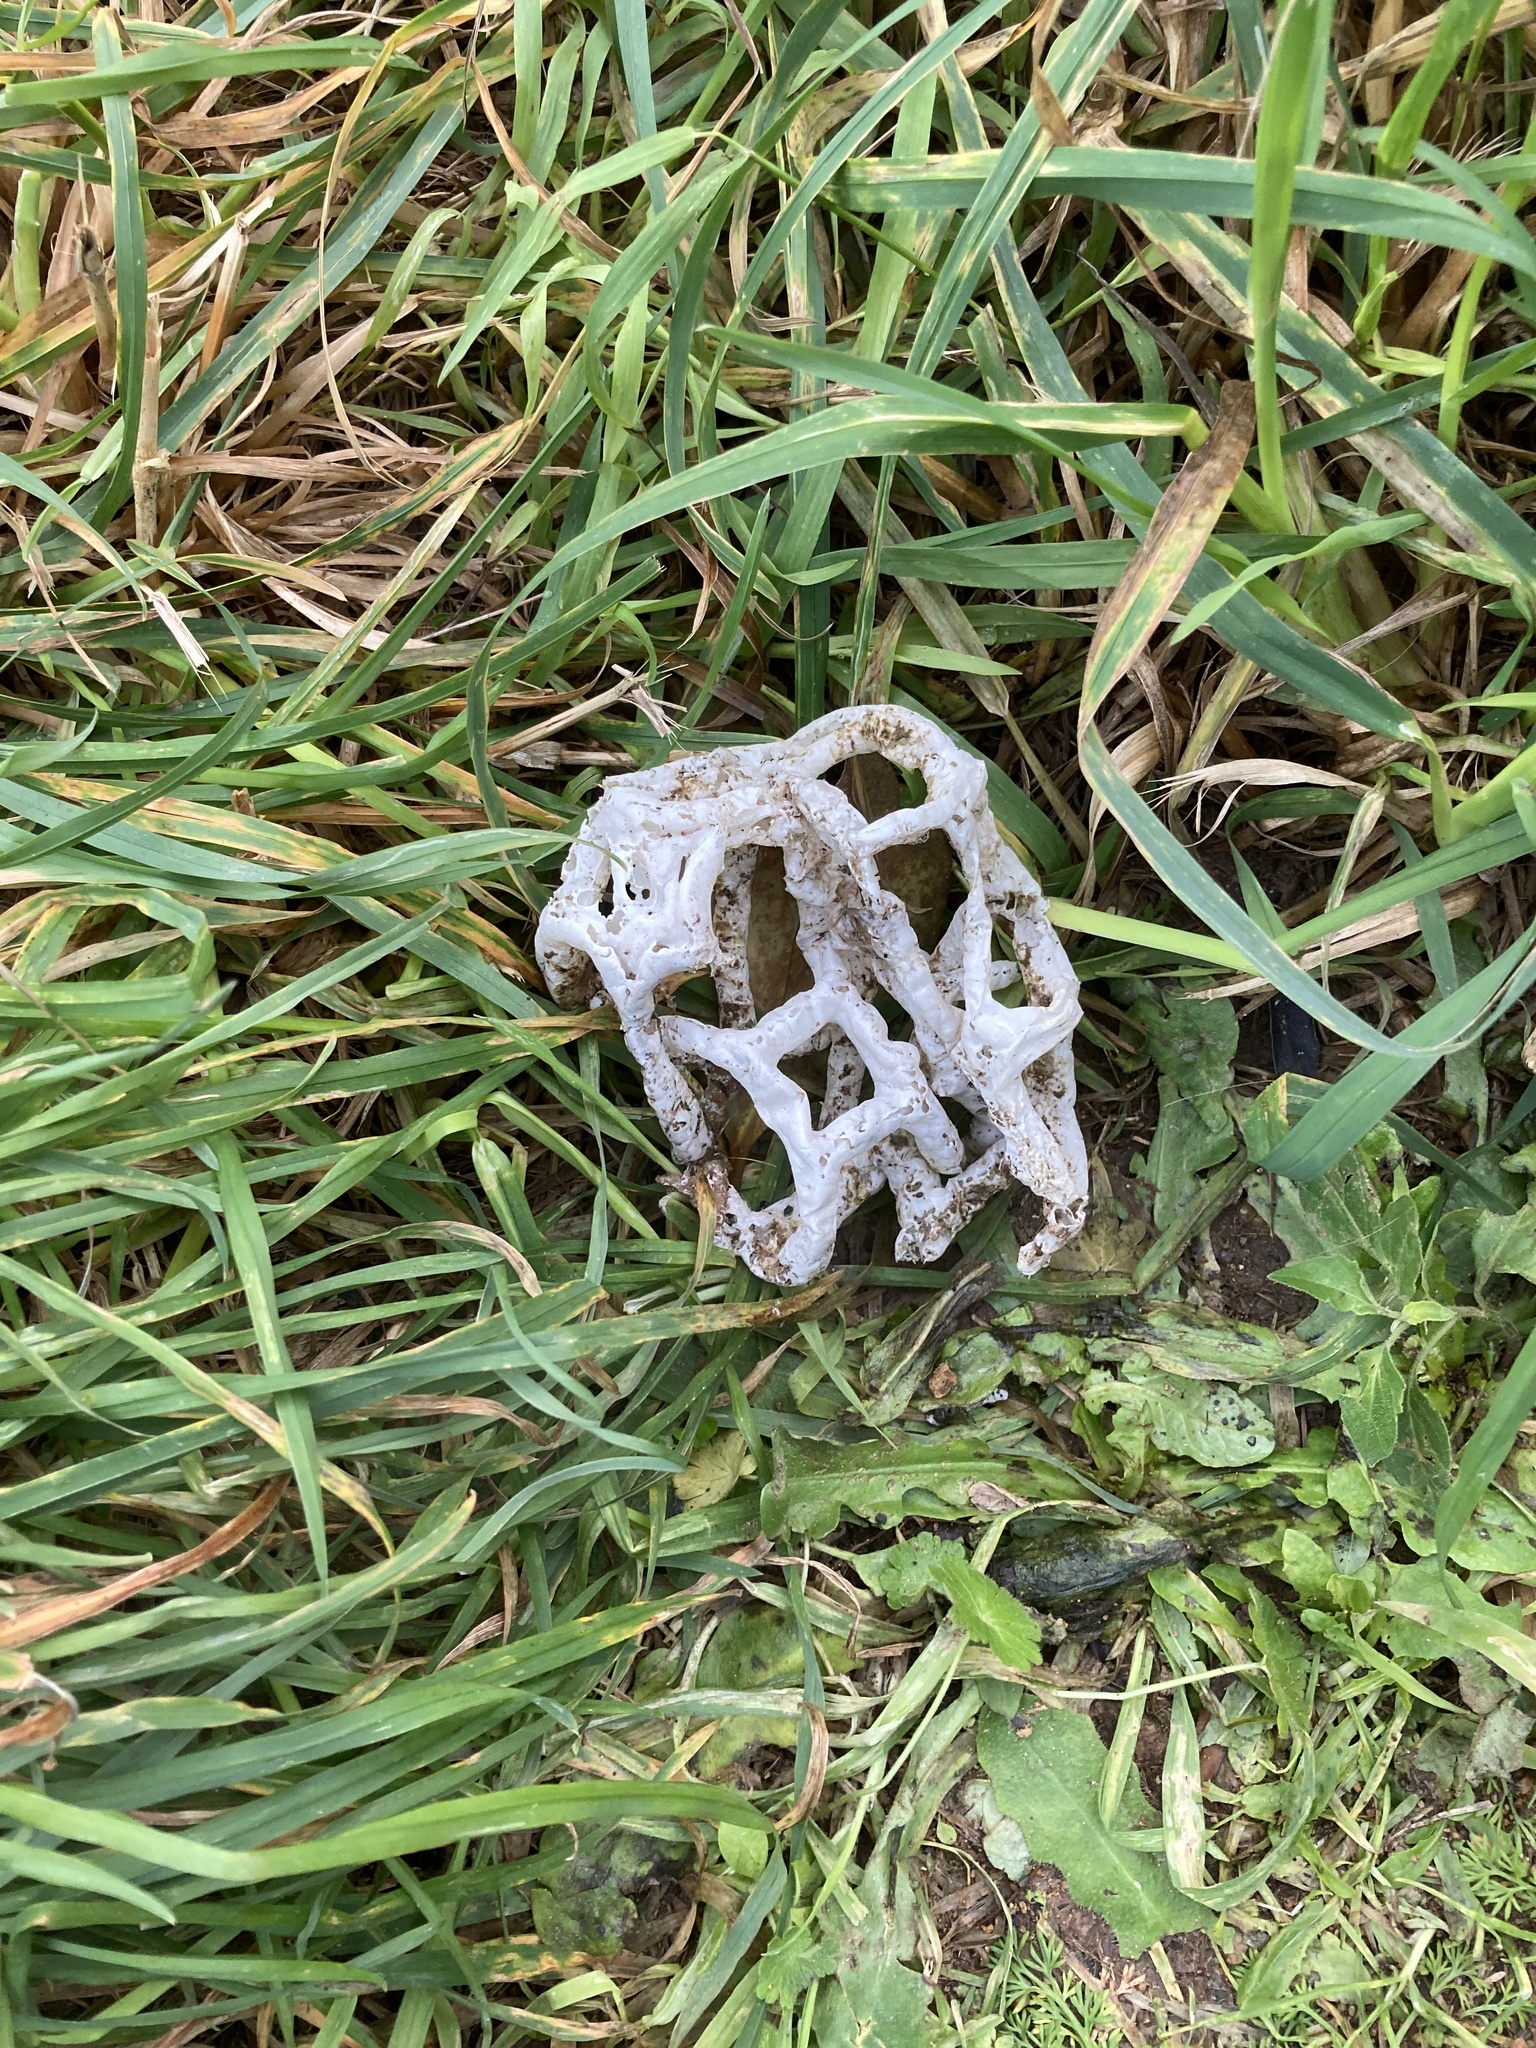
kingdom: Fungi
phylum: Basidiomycota
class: Agaricomycetes
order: Phallales
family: Phallaceae
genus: Ileodictyon
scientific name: Ileodictyon cibarium
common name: Basket fungus
